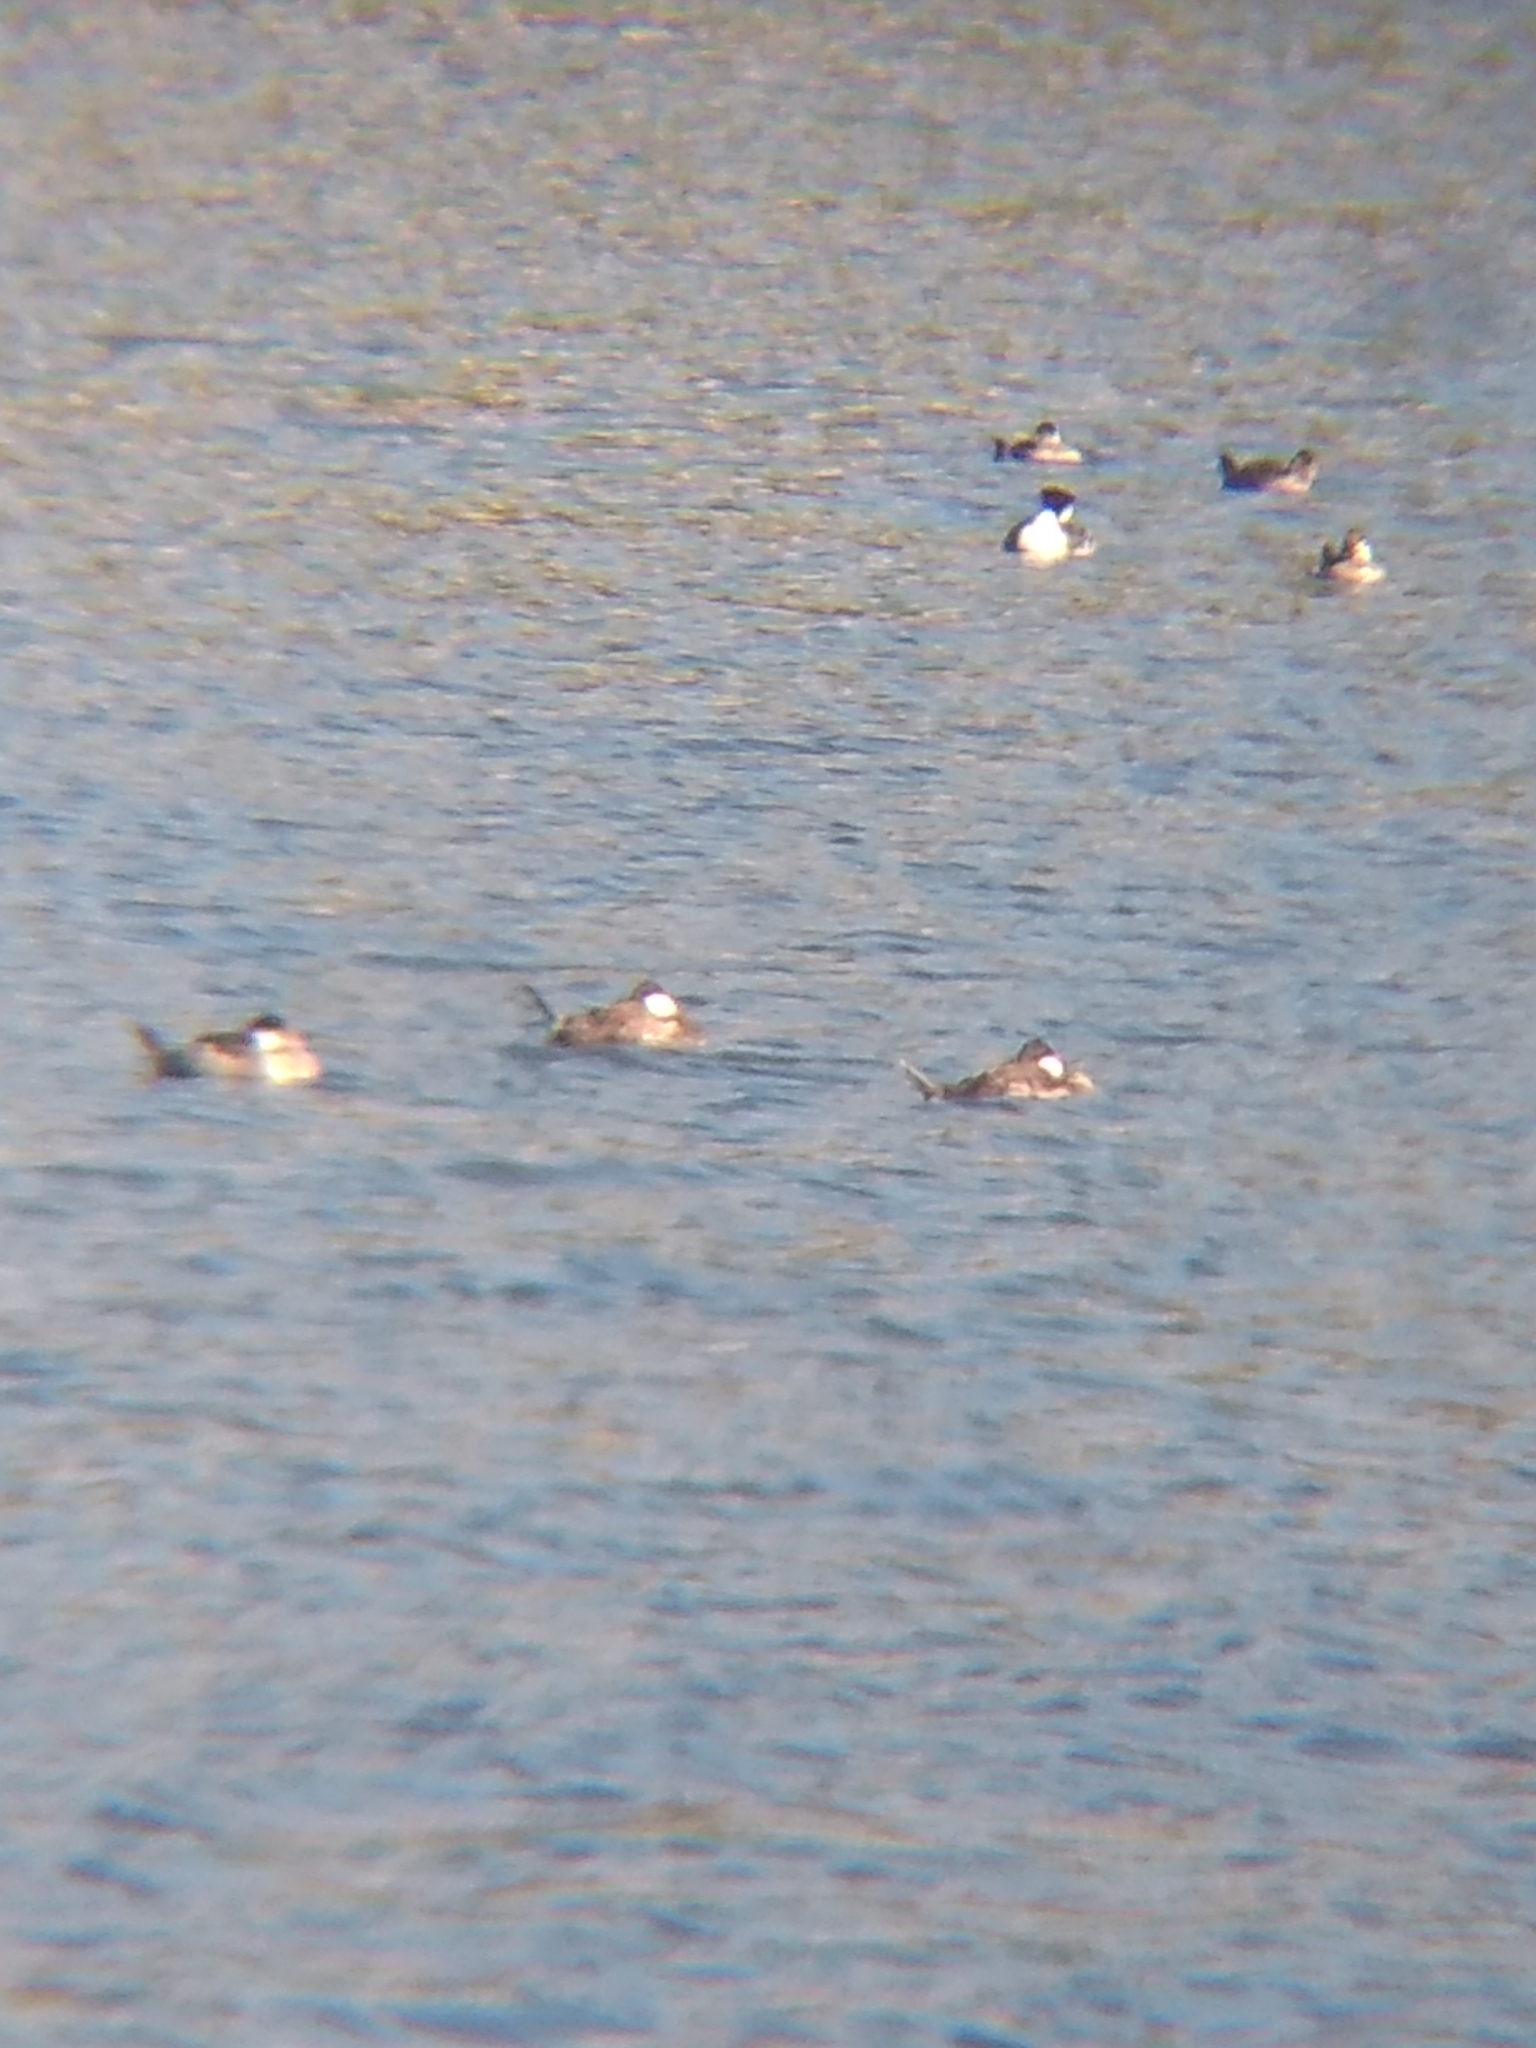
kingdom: Animalia
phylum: Chordata
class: Aves
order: Anseriformes
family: Anatidae
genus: Oxyura
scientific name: Oxyura jamaicensis
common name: Ruddy duck
